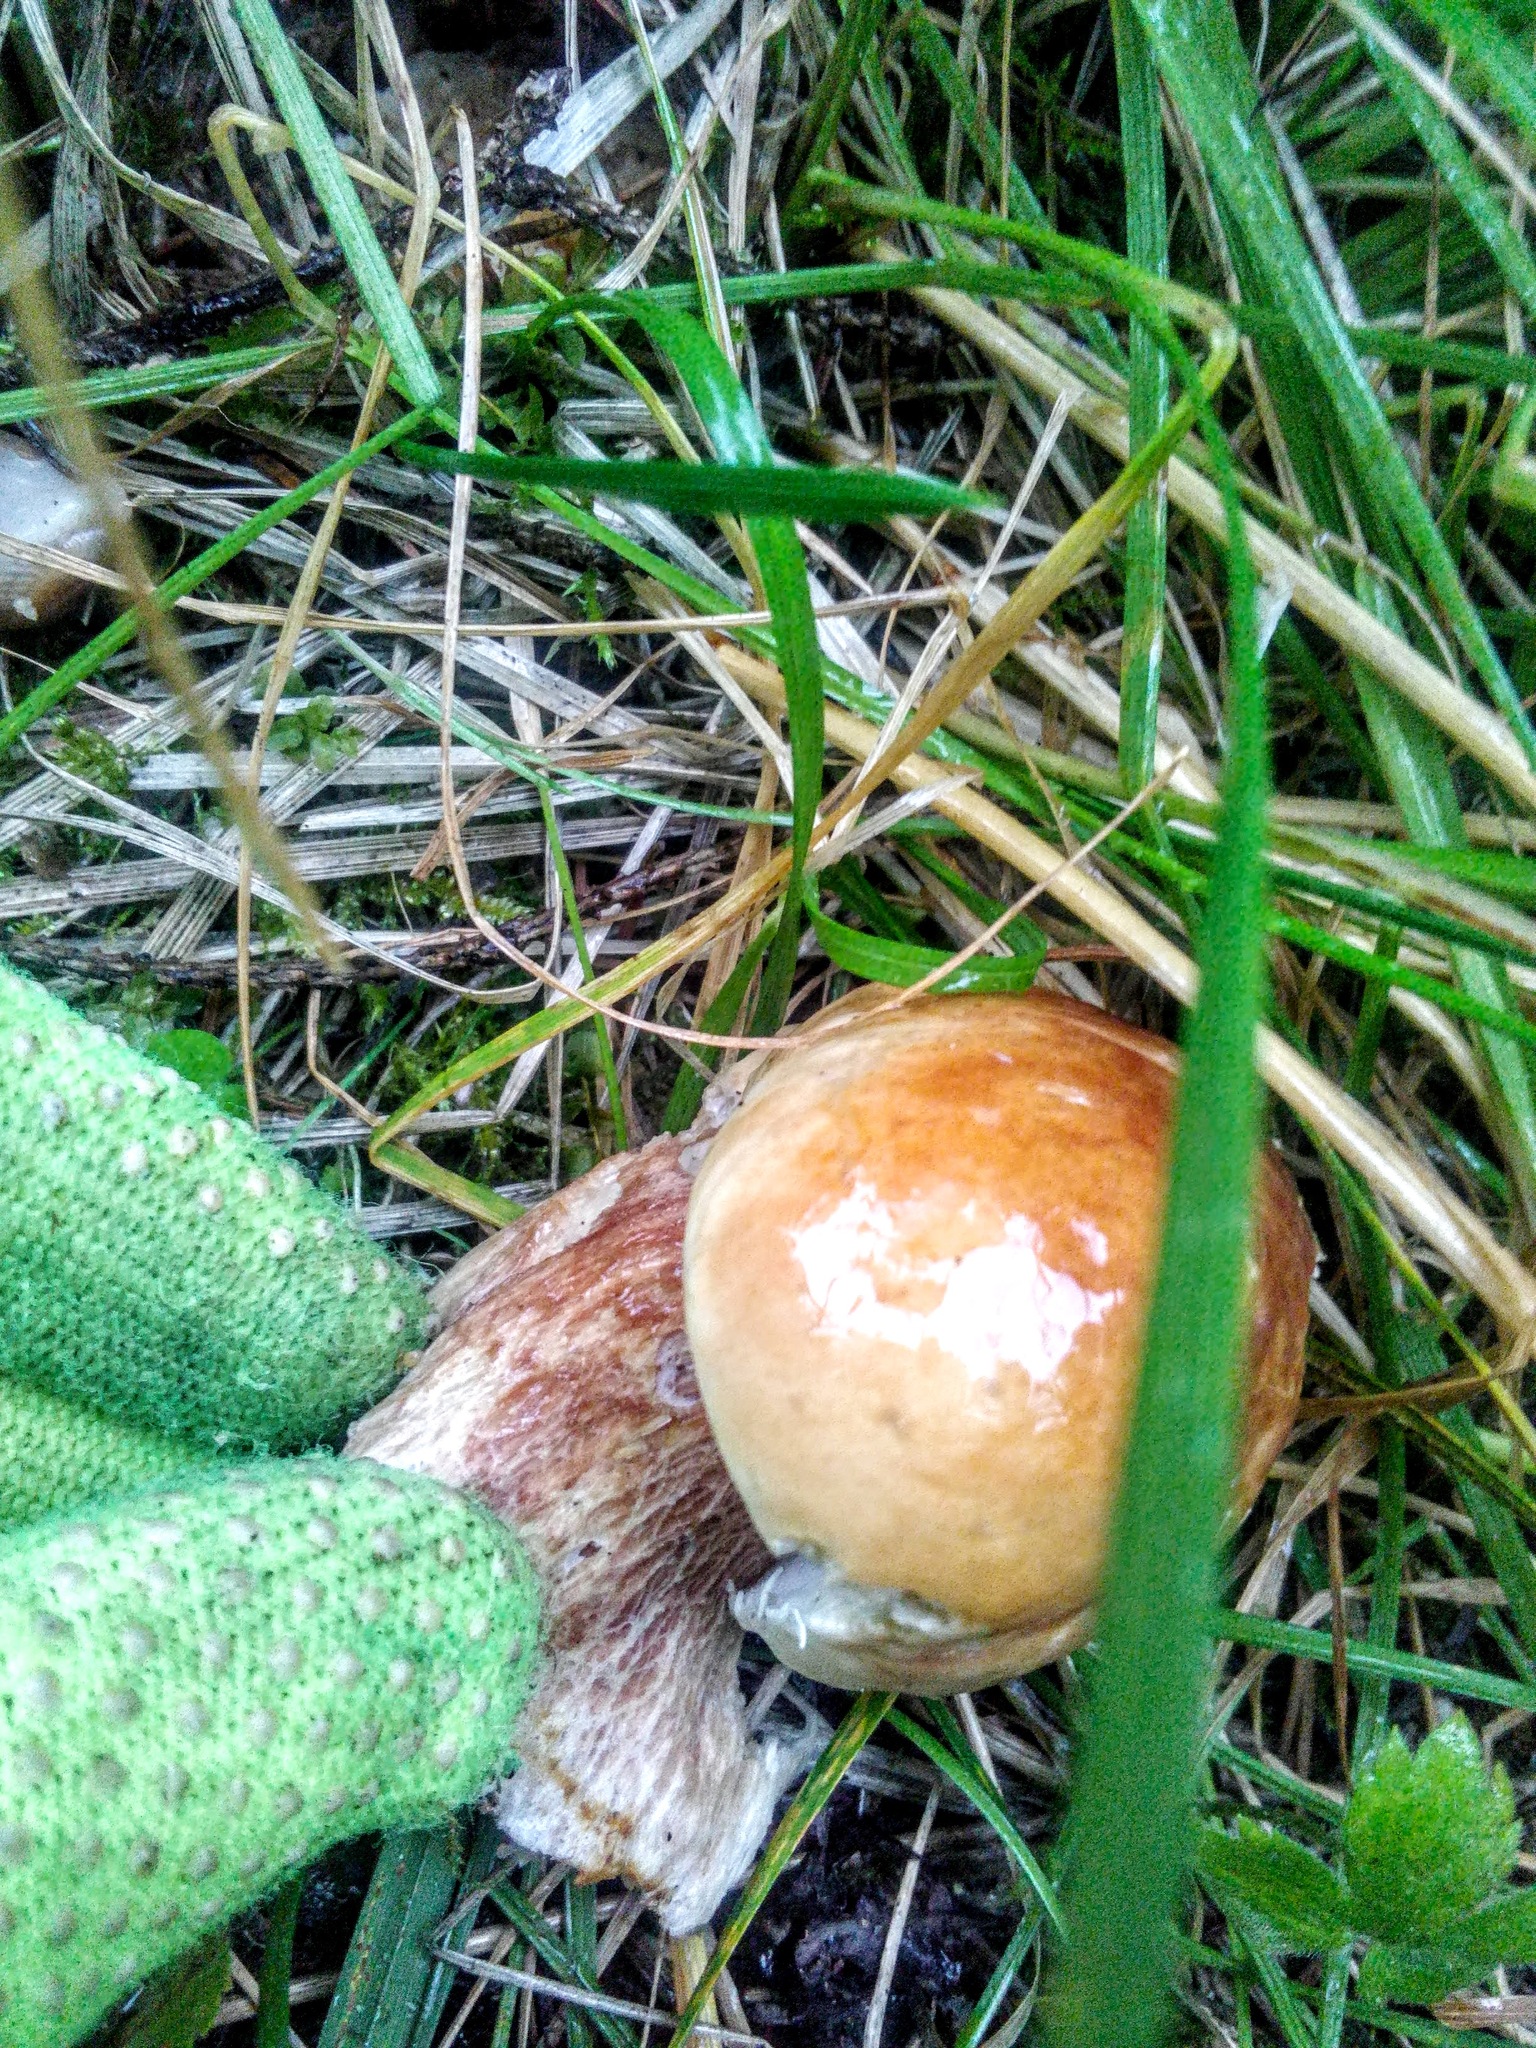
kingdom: Fungi
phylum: Basidiomycota
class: Agaricomycetes
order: Boletales
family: Boletaceae
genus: Boletus
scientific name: Boletus edulis
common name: Cep
